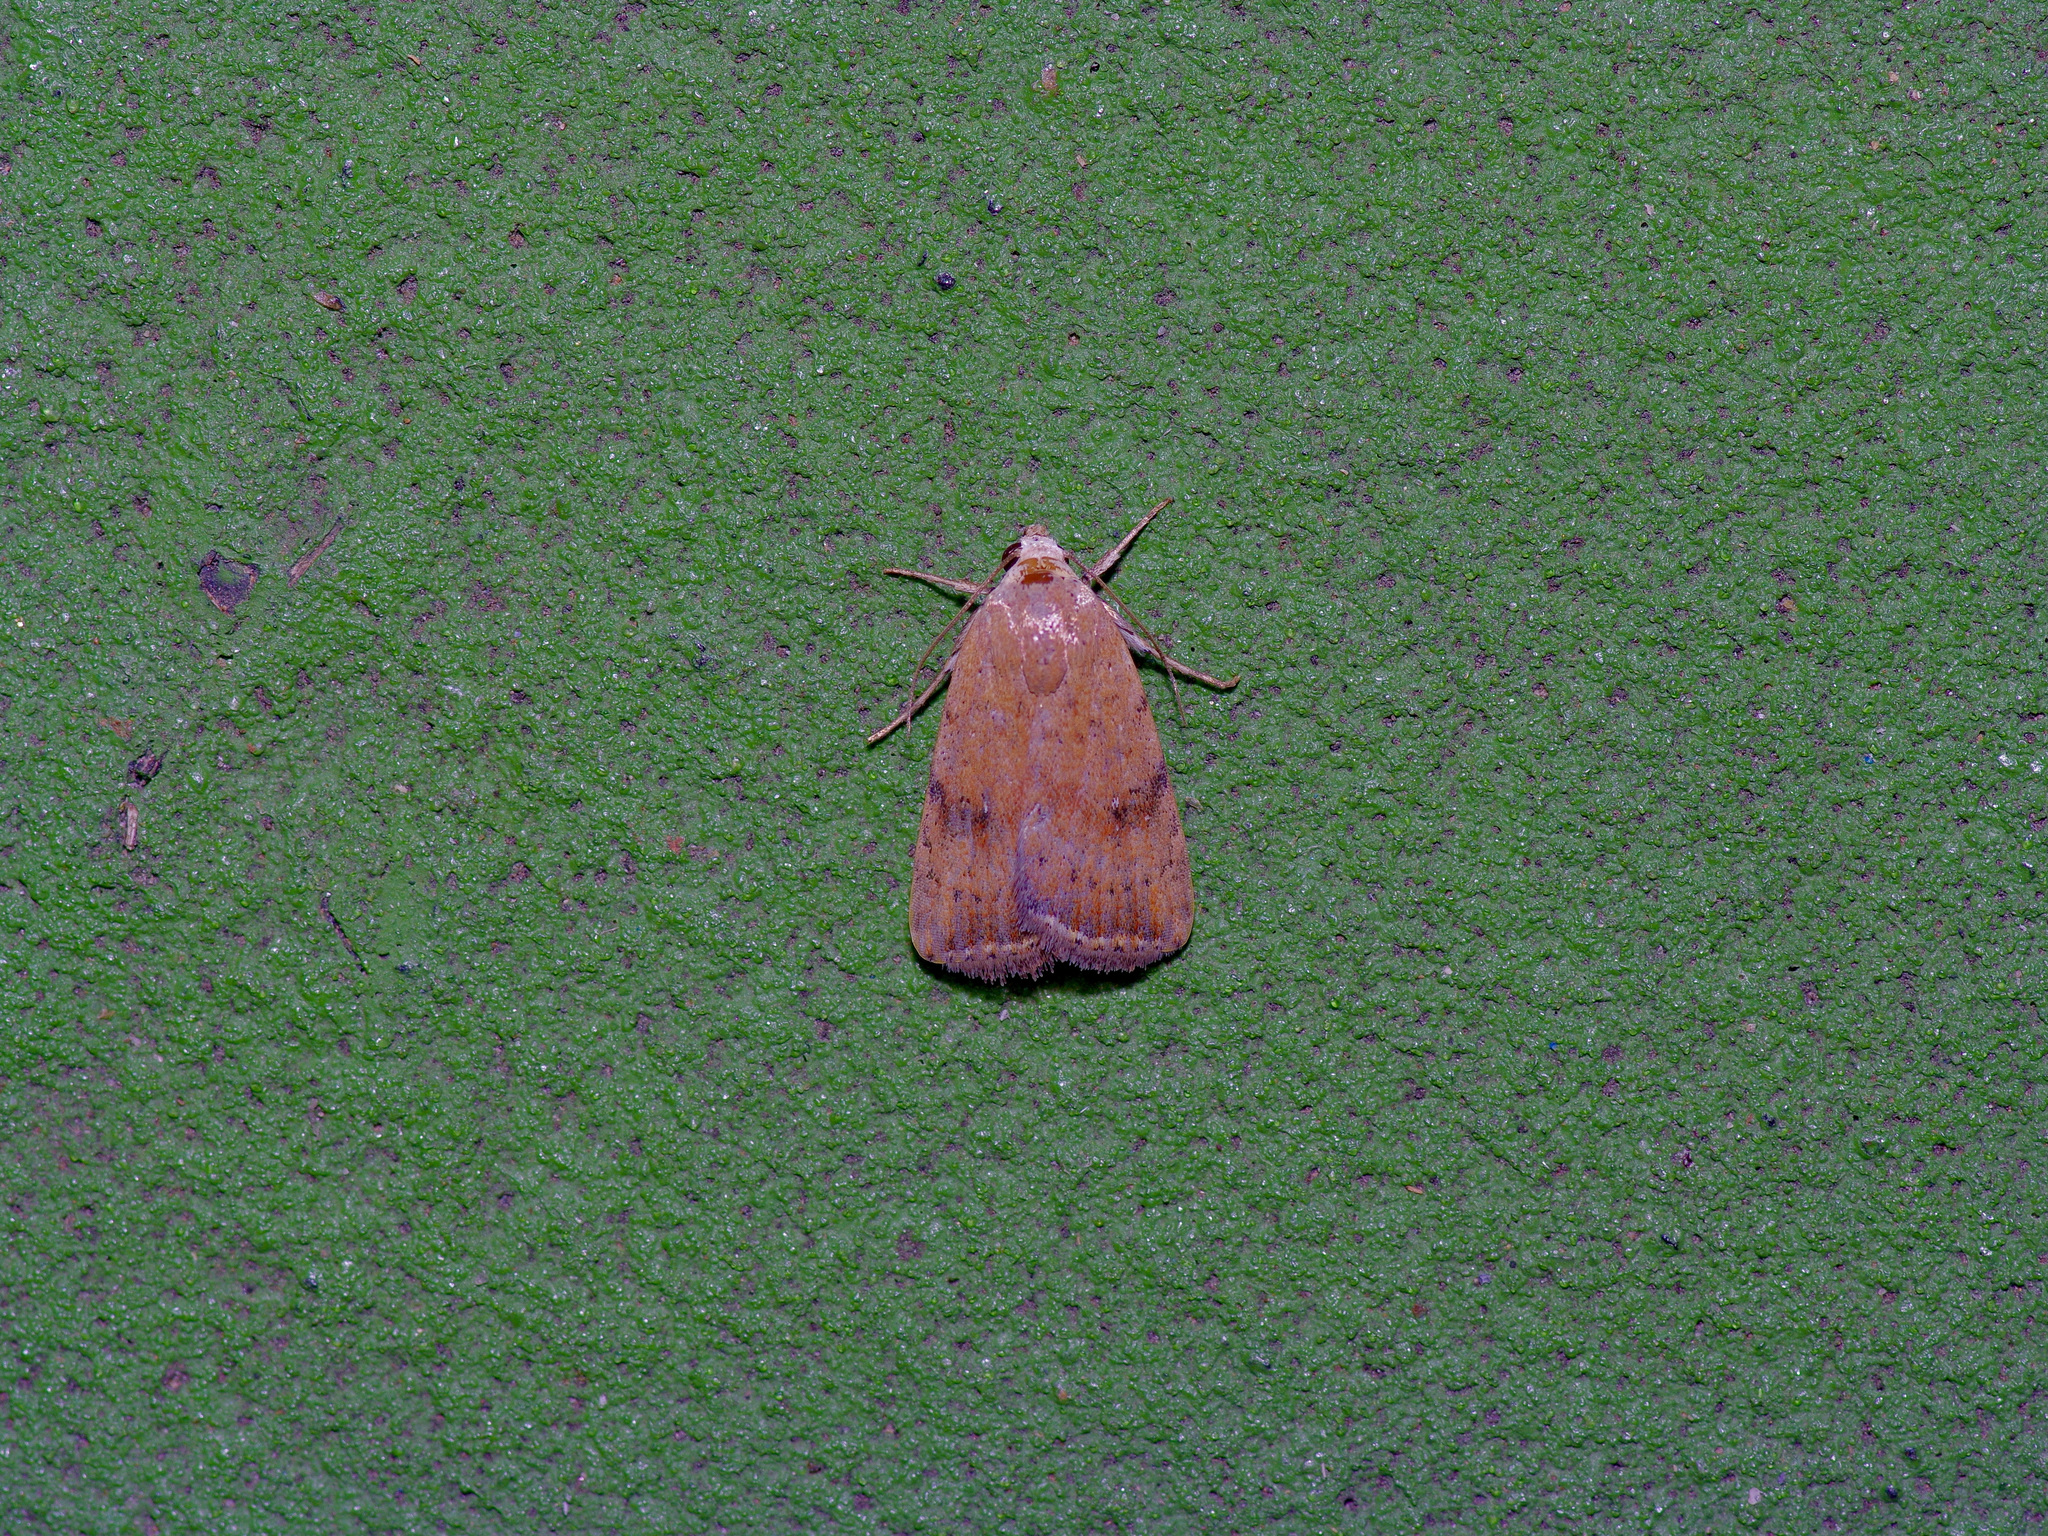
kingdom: Animalia
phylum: Arthropoda
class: Insecta
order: Lepidoptera
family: Noctuidae
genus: Micrathetis
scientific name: Micrathetis triplex
